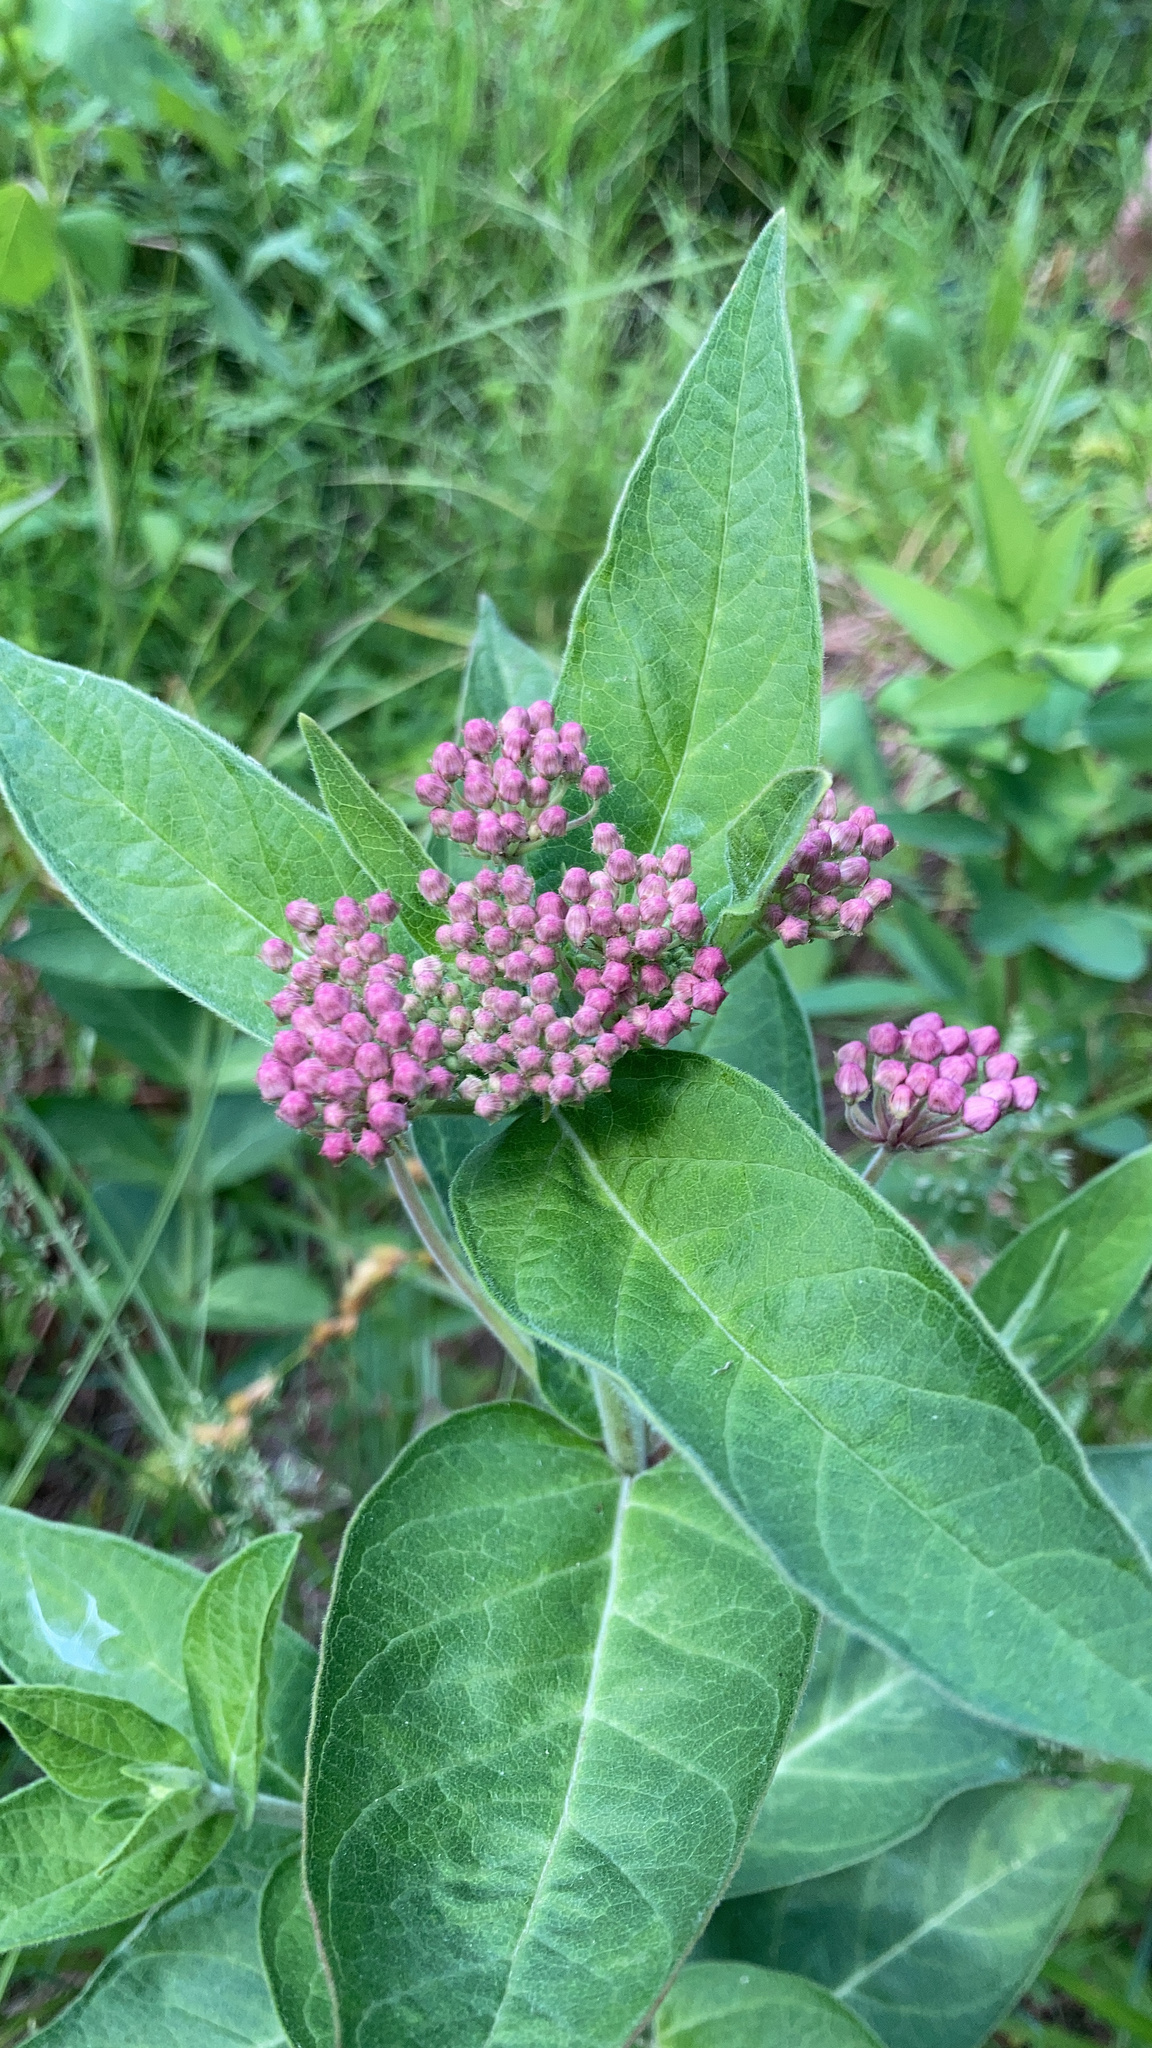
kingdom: Plantae
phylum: Tracheophyta
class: Magnoliopsida
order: Gentianales
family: Apocynaceae
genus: Asclepias
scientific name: Asclepias incarnata
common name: Swamp milkweed
